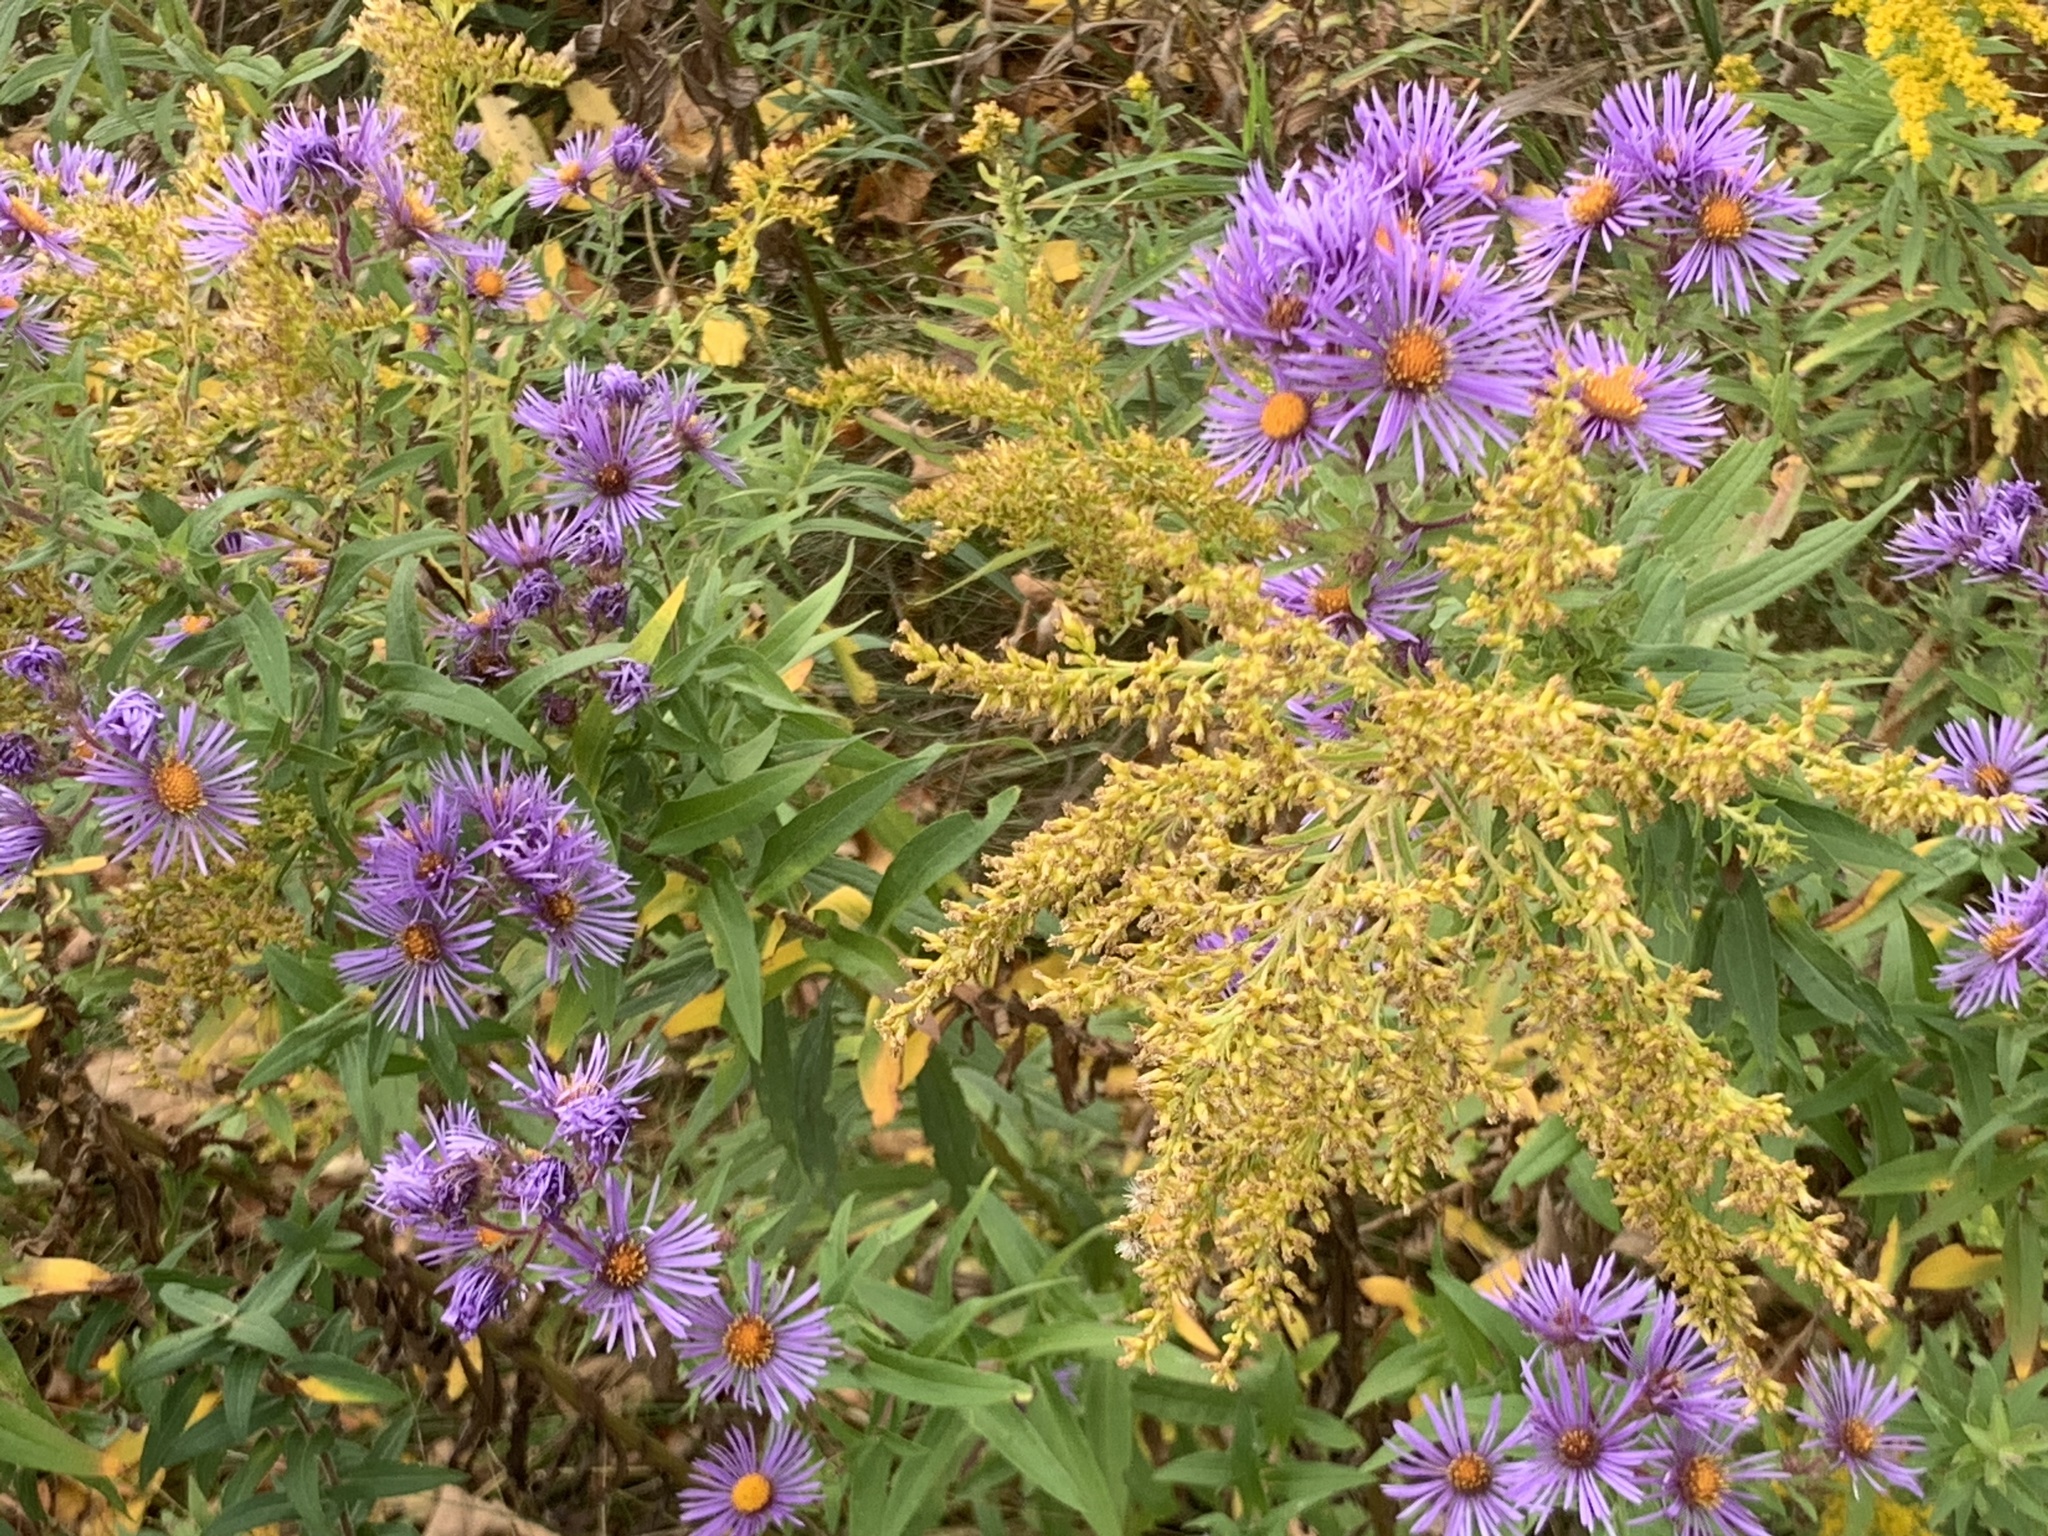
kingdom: Plantae
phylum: Tracheophyta
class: Magnoliopsida
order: Asterales
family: Asteraceae
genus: Symphyotrichum
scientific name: Symphyotrichum novae-angliae
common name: Michaelmas daisy
